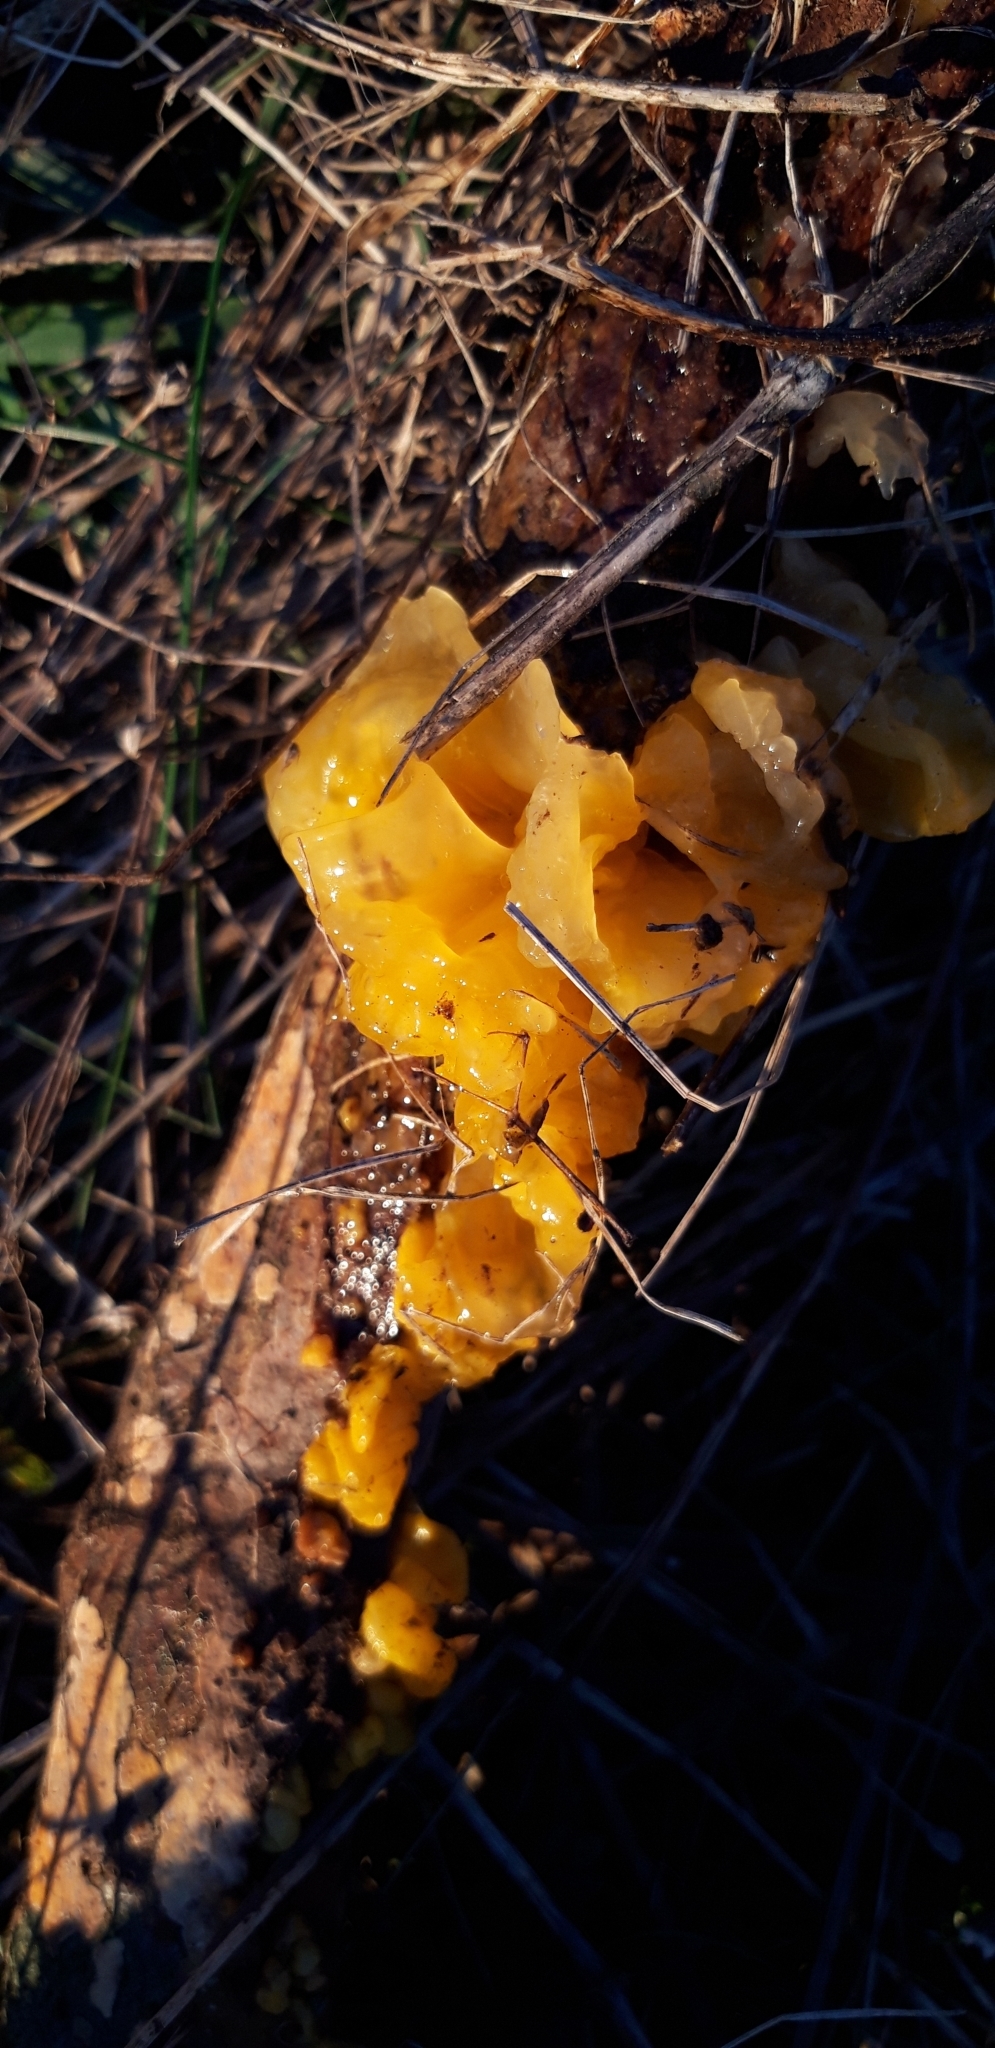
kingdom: Fungi
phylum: Basidiomycota
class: Tremellomycetes
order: Tremellales
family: Tremellaceae
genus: Tremella
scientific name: Tremella mesenterica
